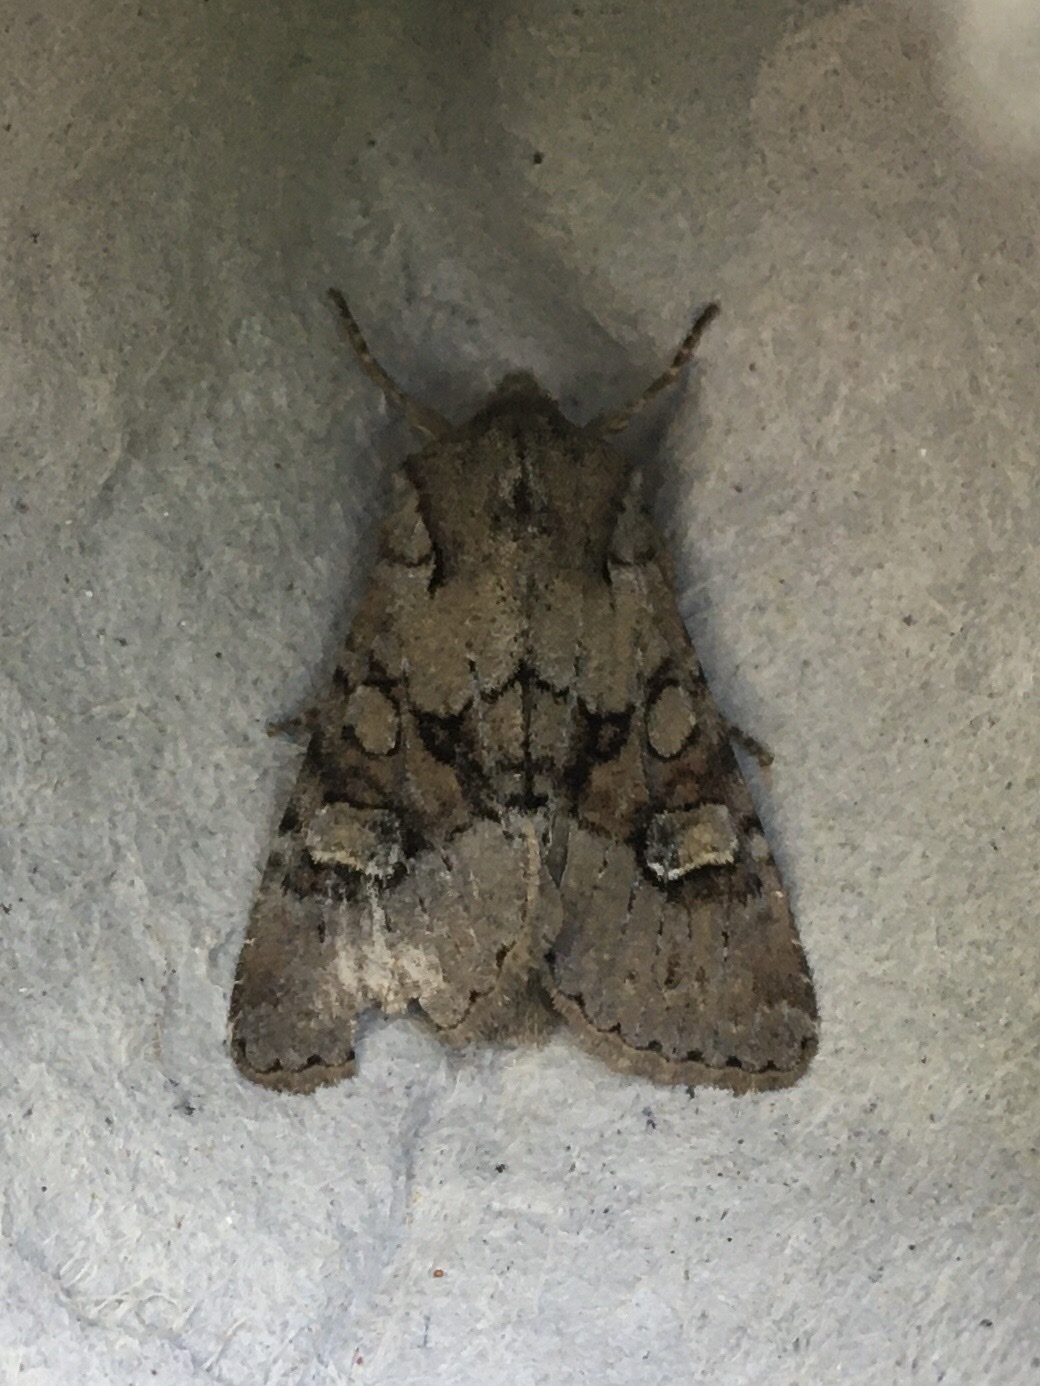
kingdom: Animalia
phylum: Arthropoda
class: Insecta
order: Lepidoptera
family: Noctuidae
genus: Apamea
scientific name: Apamea sordens
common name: Rustic shoulder-knot
